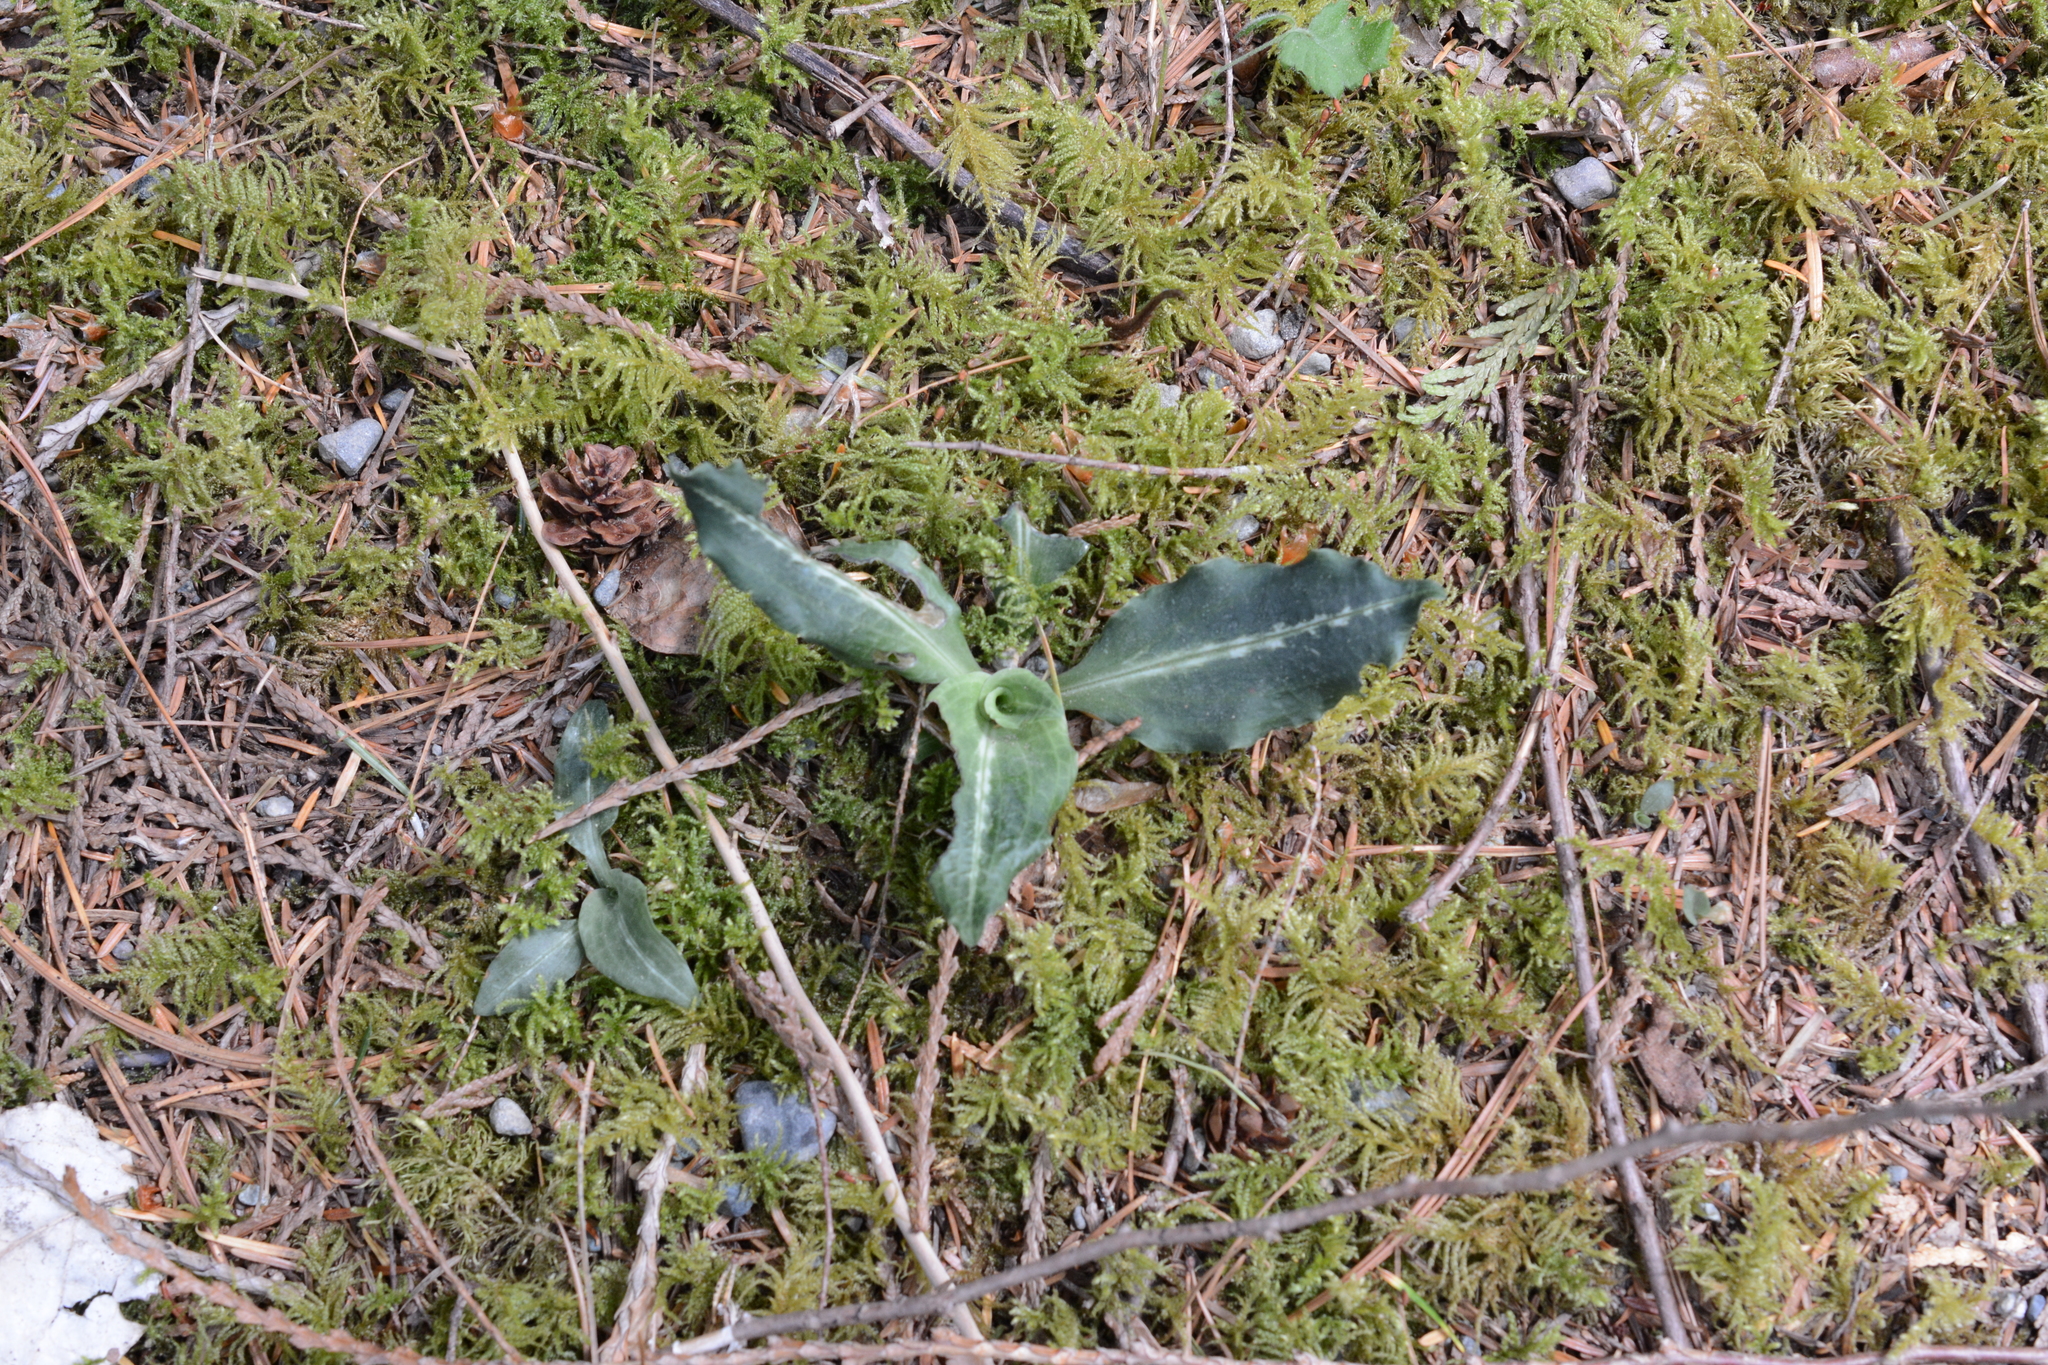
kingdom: Plantae
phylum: Tracheophyta
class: Liliopsida
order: Asparagales
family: Orchidaceae
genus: Goodyera
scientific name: Goodyera oblongifolia
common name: Giant rattlesnake-plantain
